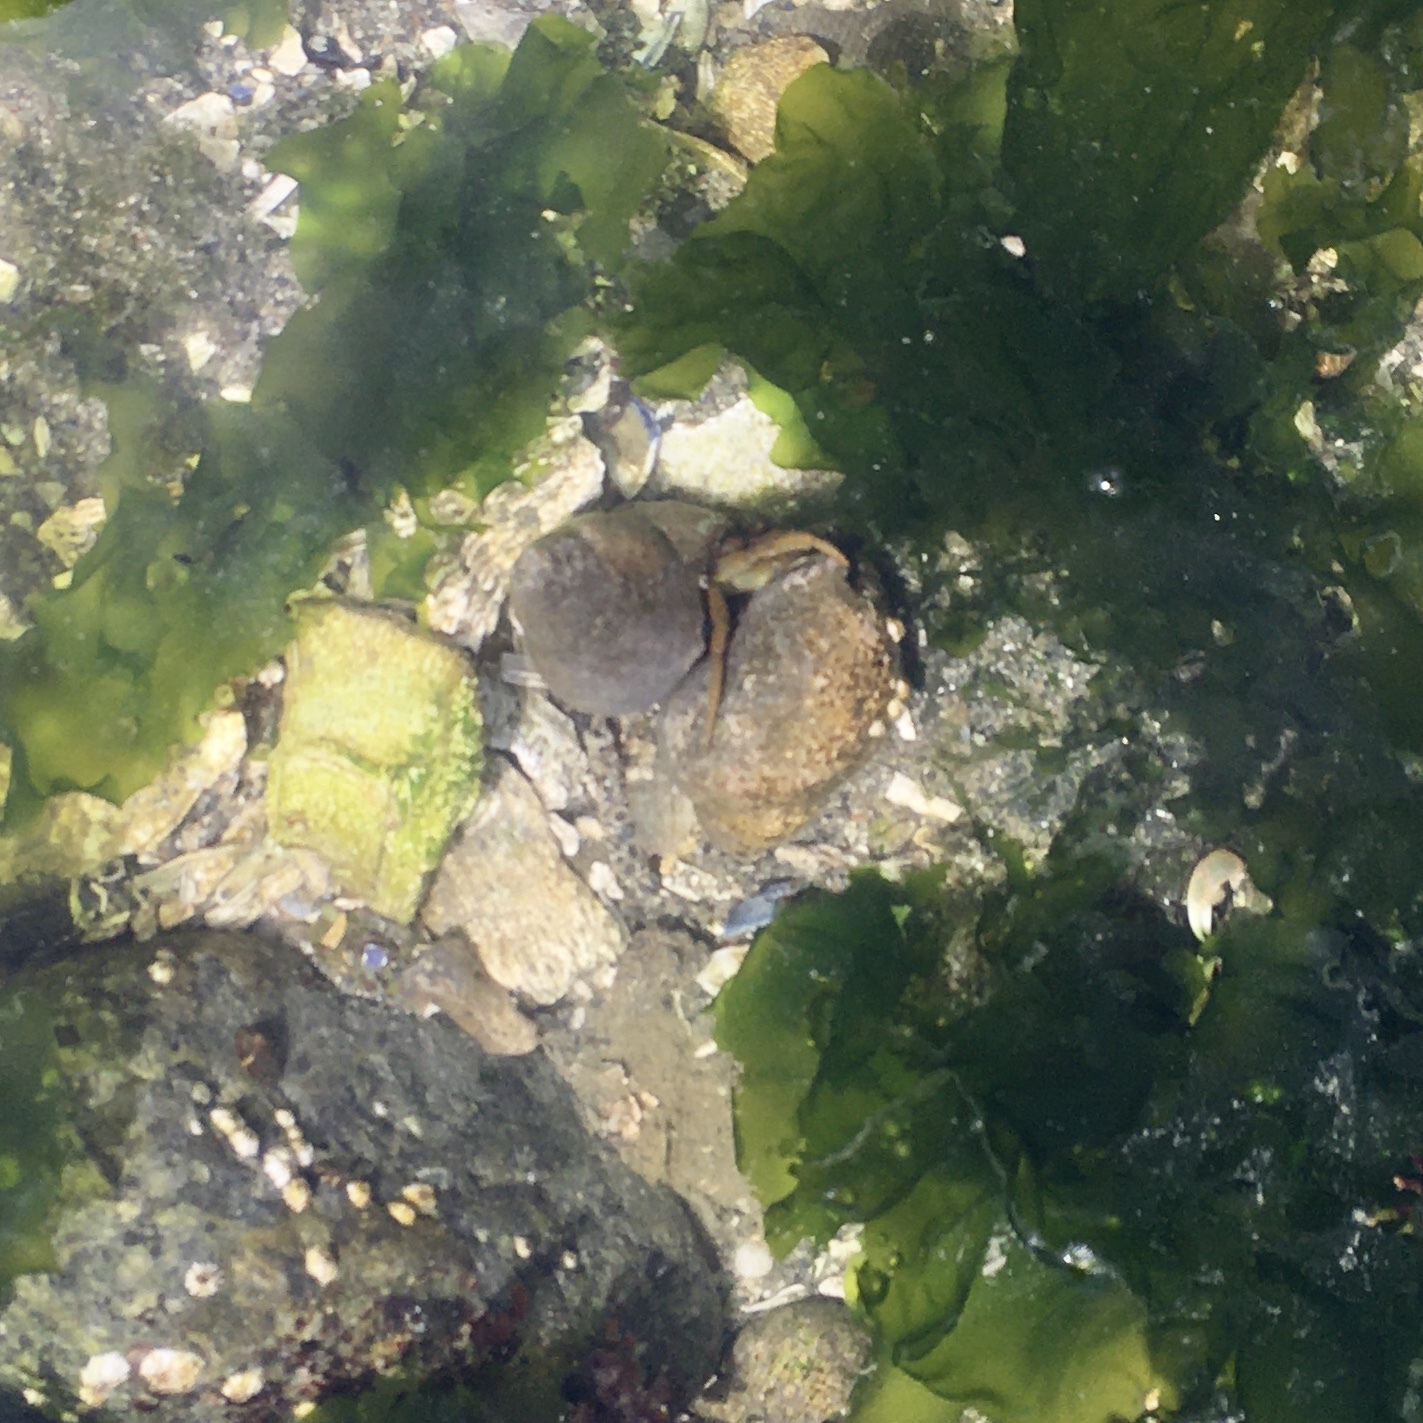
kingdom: Animalia
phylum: Arthropoda
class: Malacostraca
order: Decapoda
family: Paguridae
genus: Pagurus
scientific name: Pagurus granosimanus
